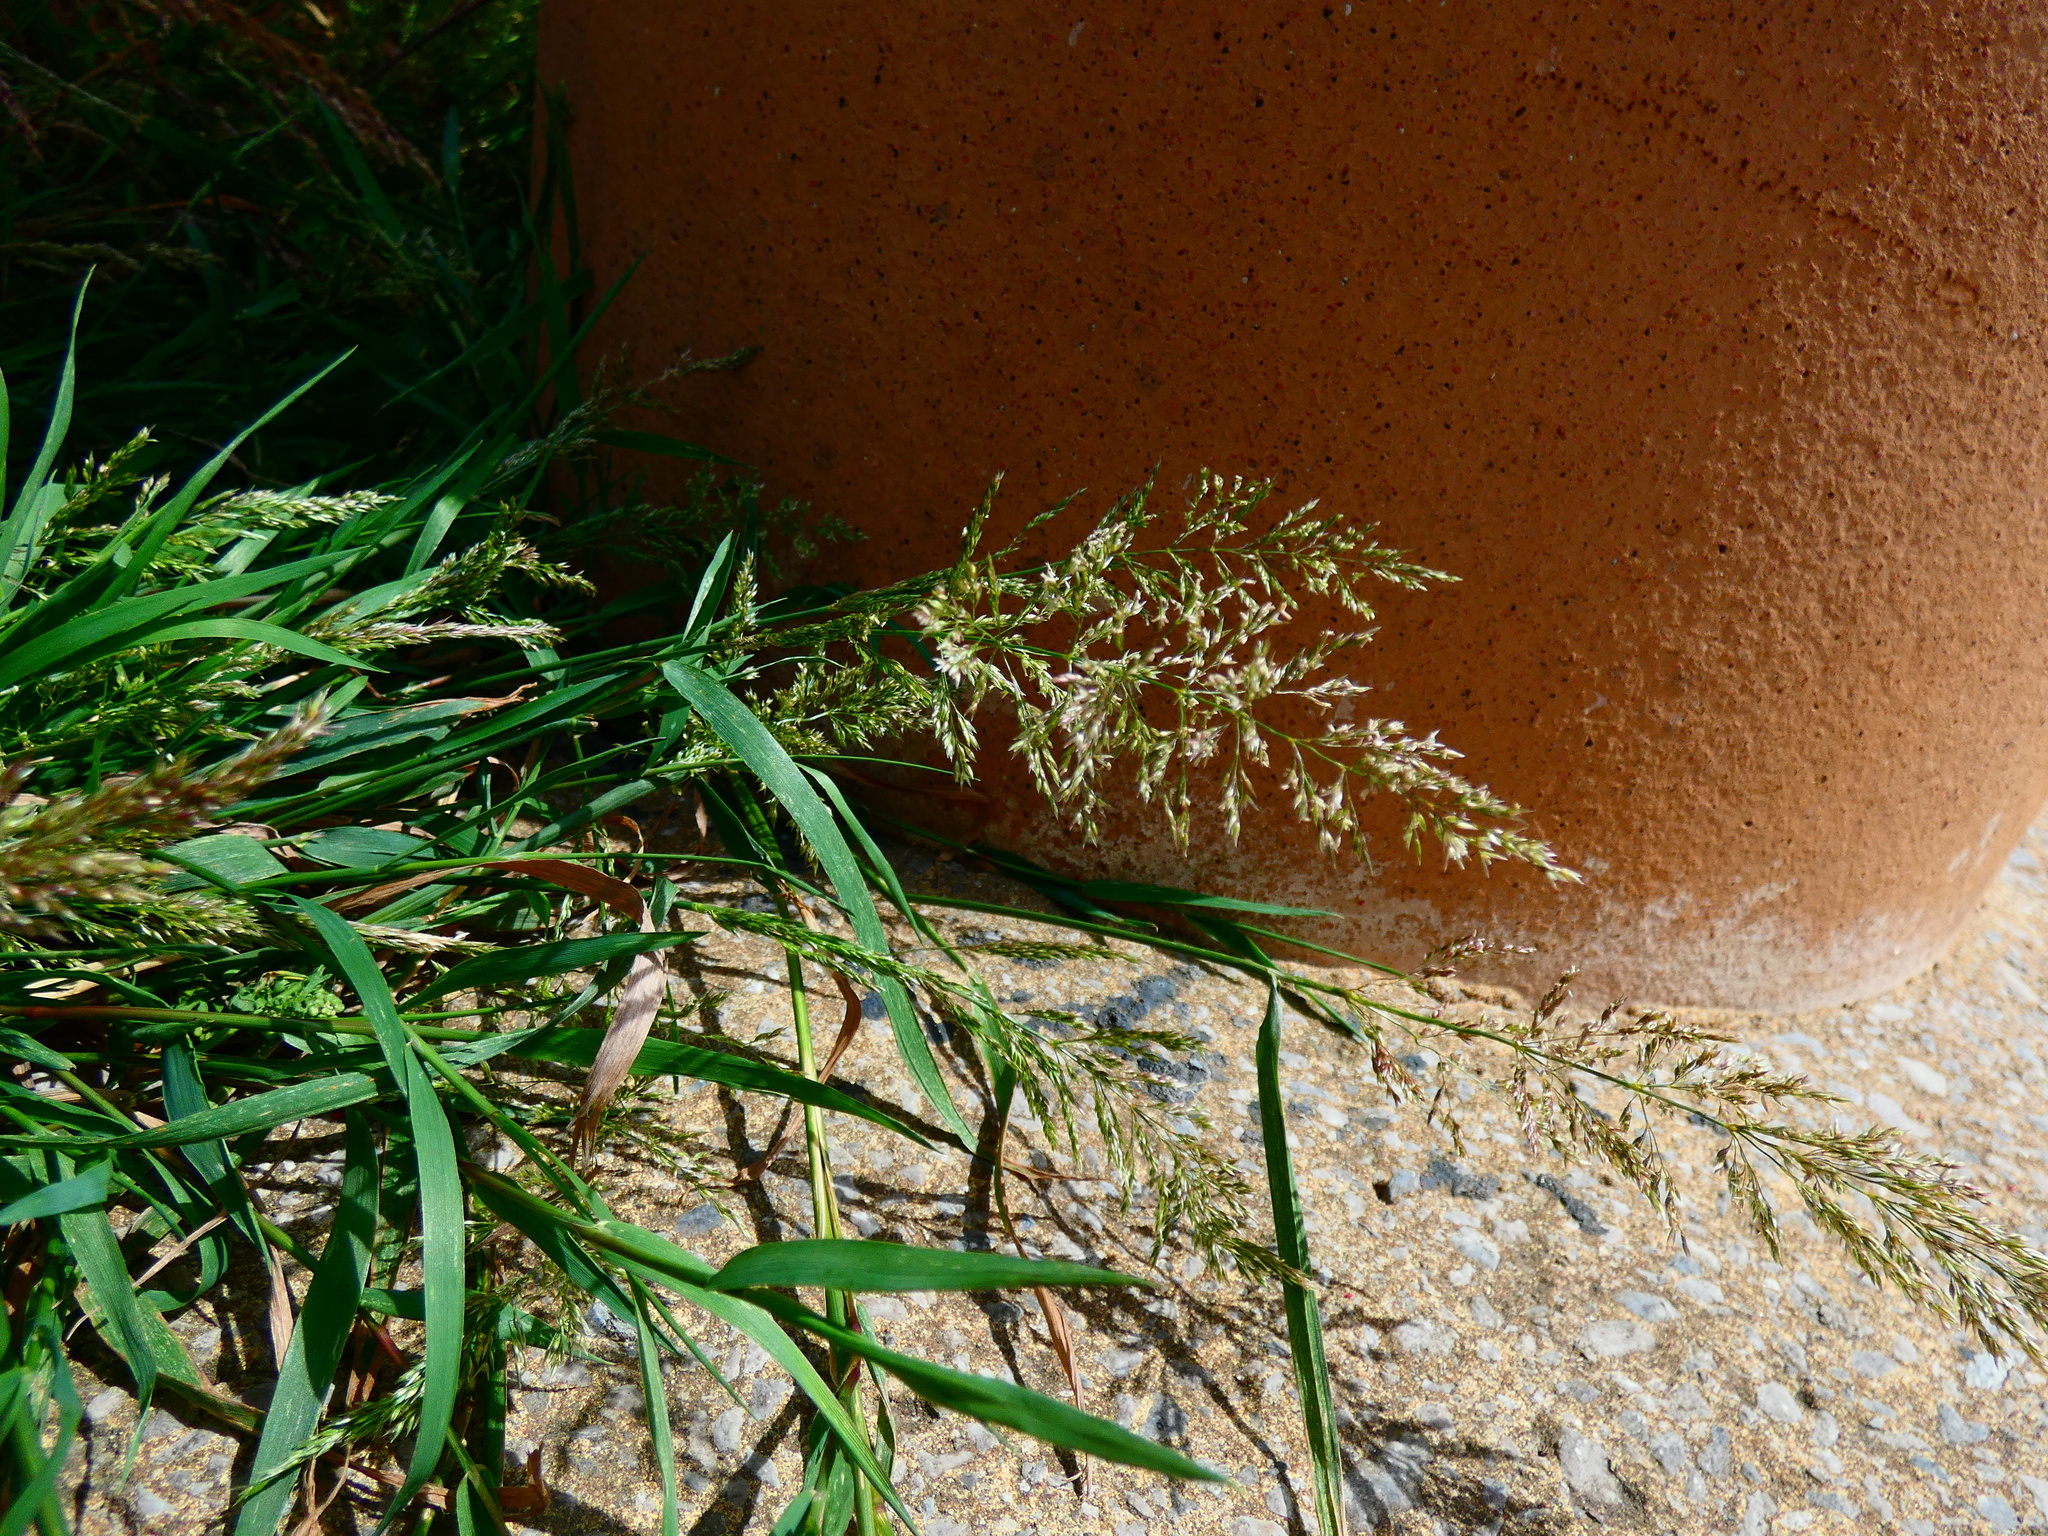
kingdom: Plantae
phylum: Tracheophyta
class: Liliopsida
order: Poales
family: Poaceae
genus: Agrostis
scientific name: Agrostis stolonifera
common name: Creeping bentgrass
